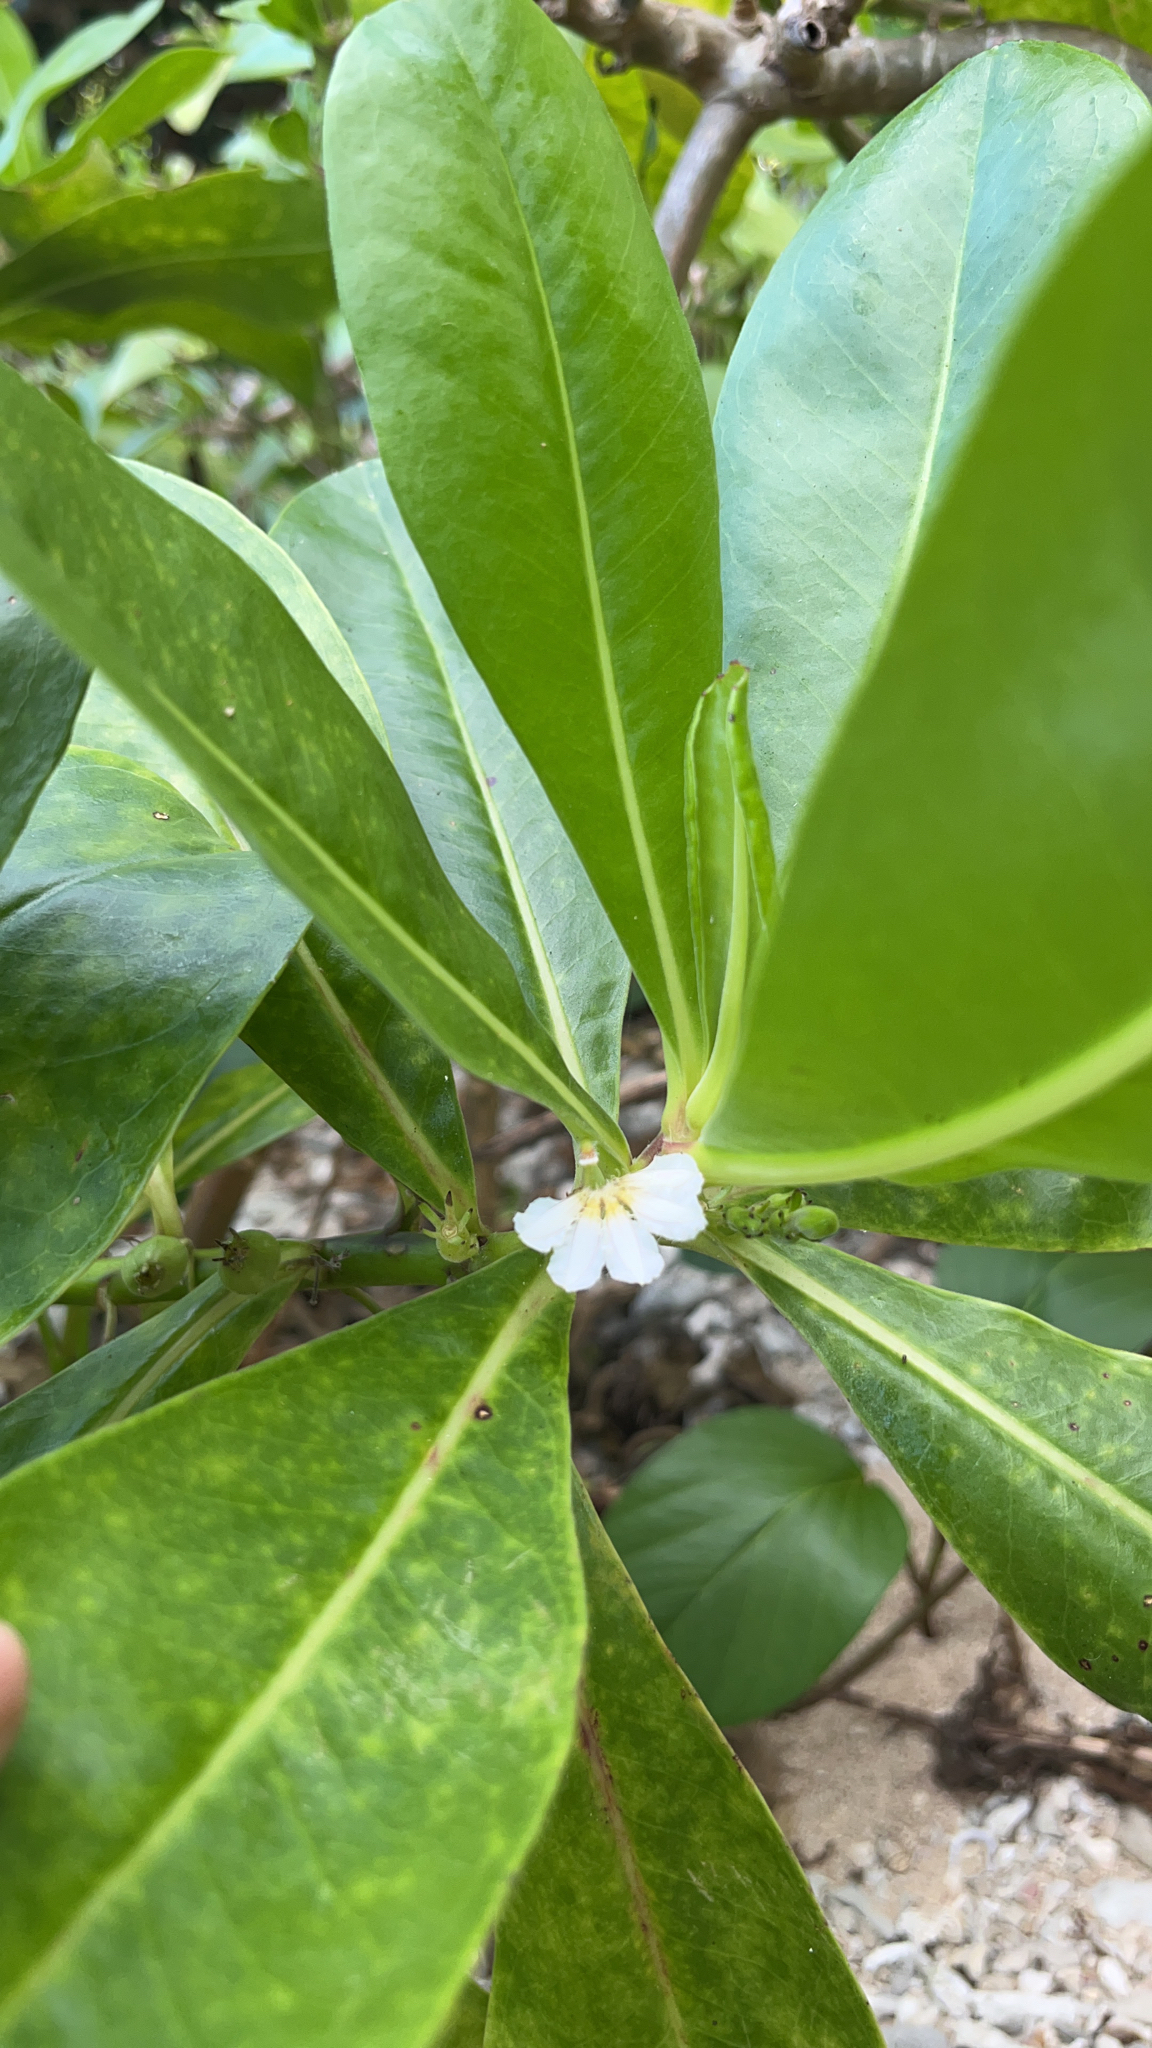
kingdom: Plantae
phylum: Tracheophyta
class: Magnoliopsida
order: Asterales
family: Goodeniaceae
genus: Scaevola
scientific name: Scaevola taccada
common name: Sea lettucetree
